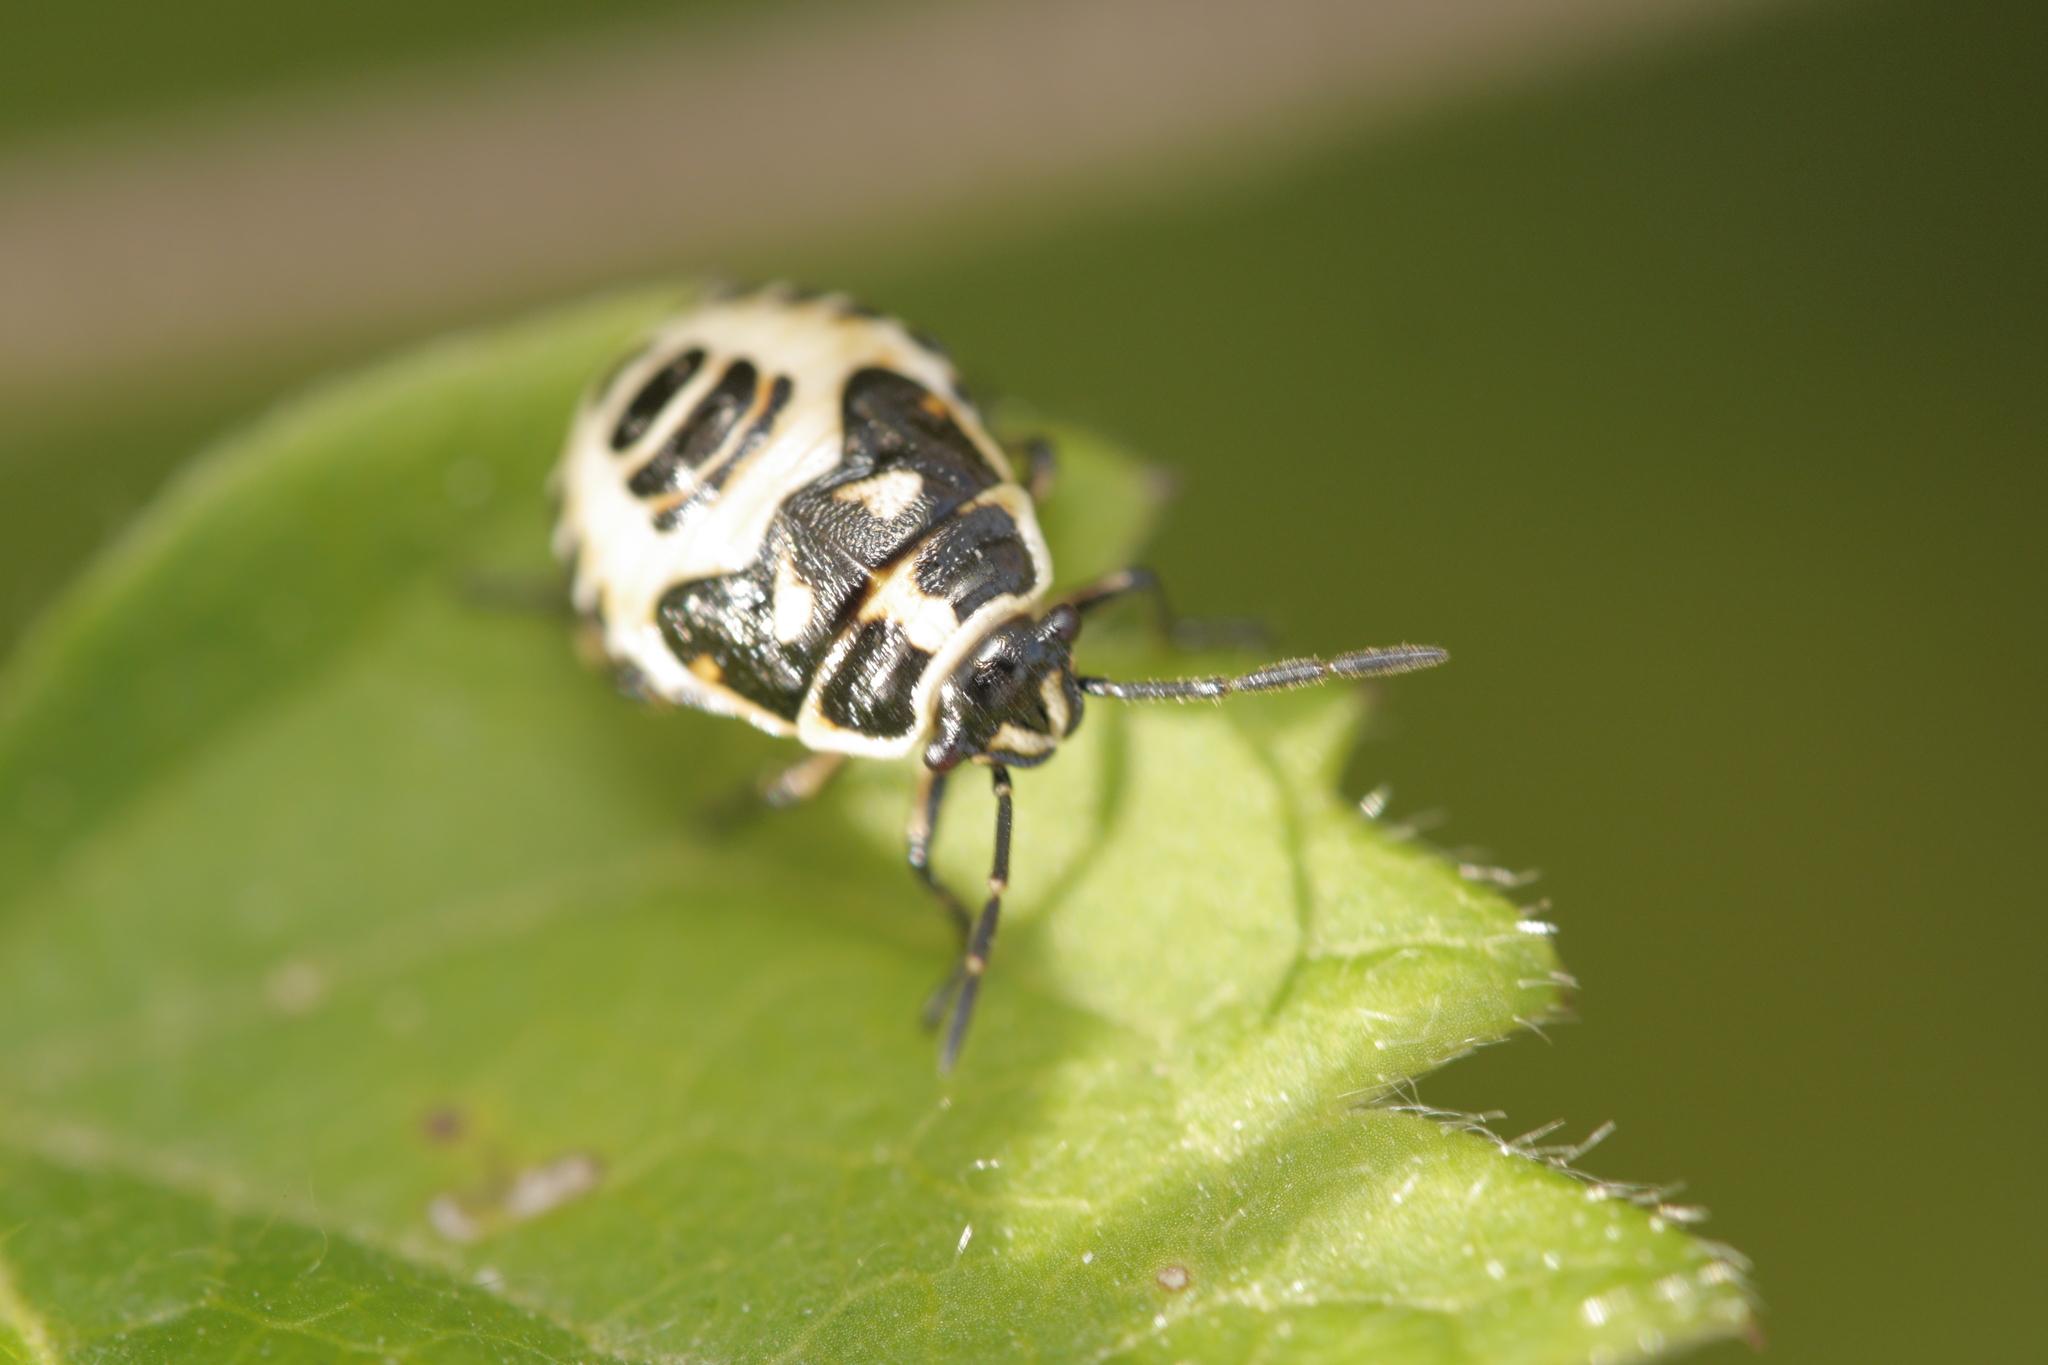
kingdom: Animalia
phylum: Arthropoda
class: Insecta
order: Hemiptera
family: Pentatomidae
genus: Eurydema
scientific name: Eurydema oleracea
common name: Cabbage bug
